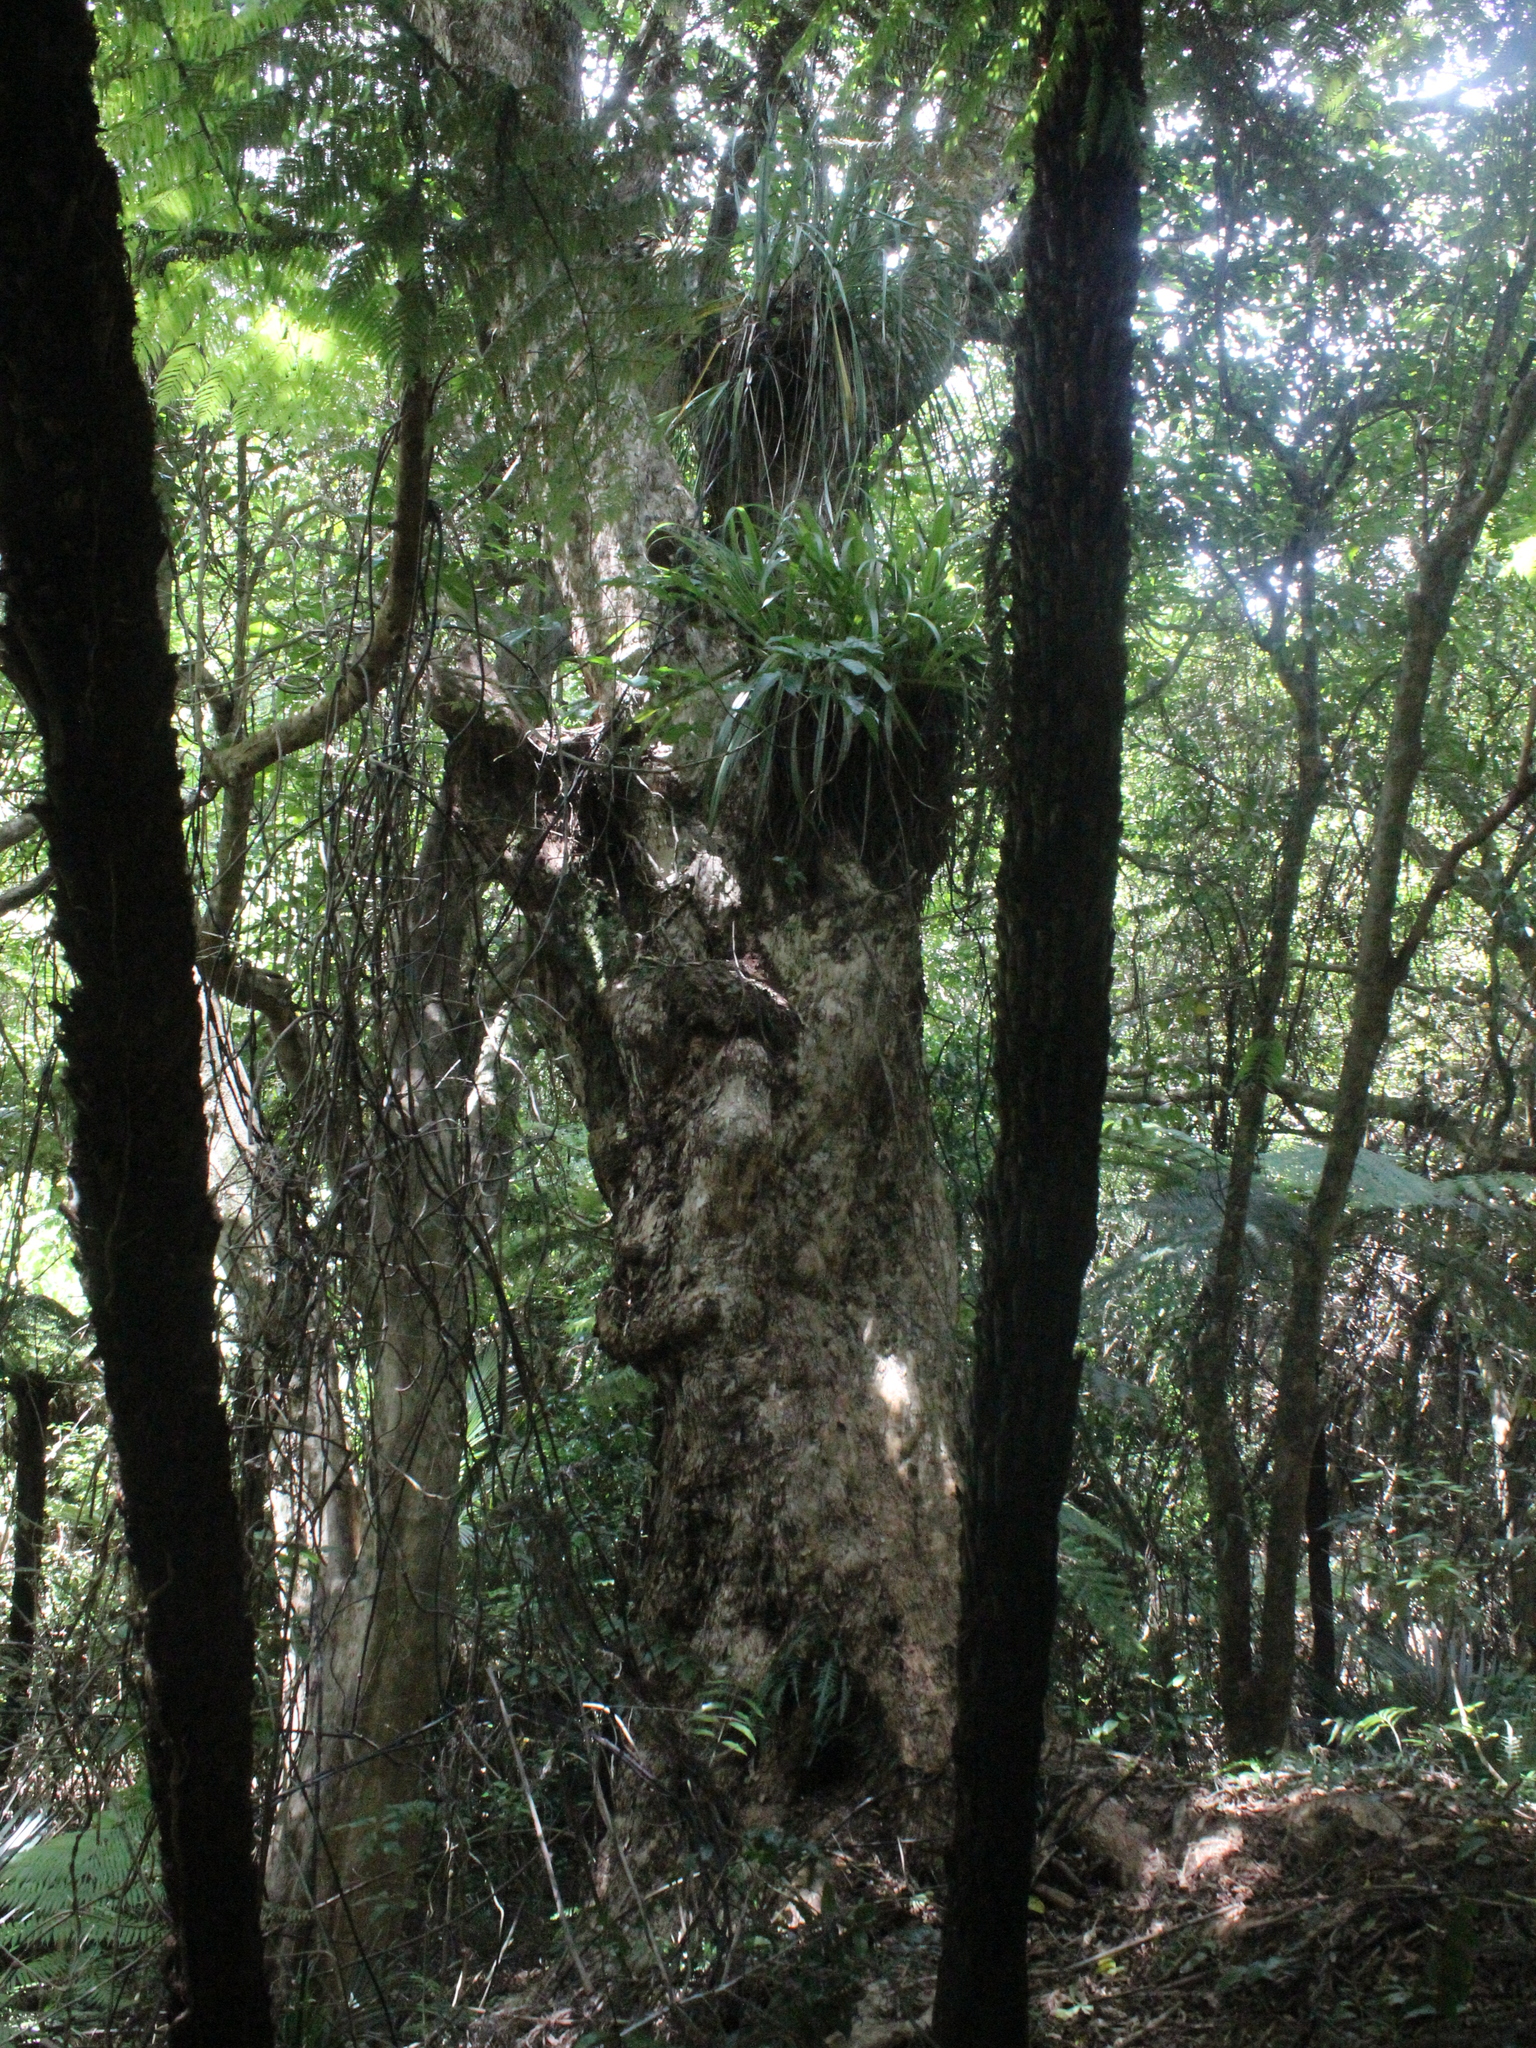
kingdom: Plantae
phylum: Tracheophyta
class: Magnoliopsida
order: Lamiales
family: Lamiaceae
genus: Vitex
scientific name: Vitex lucens
